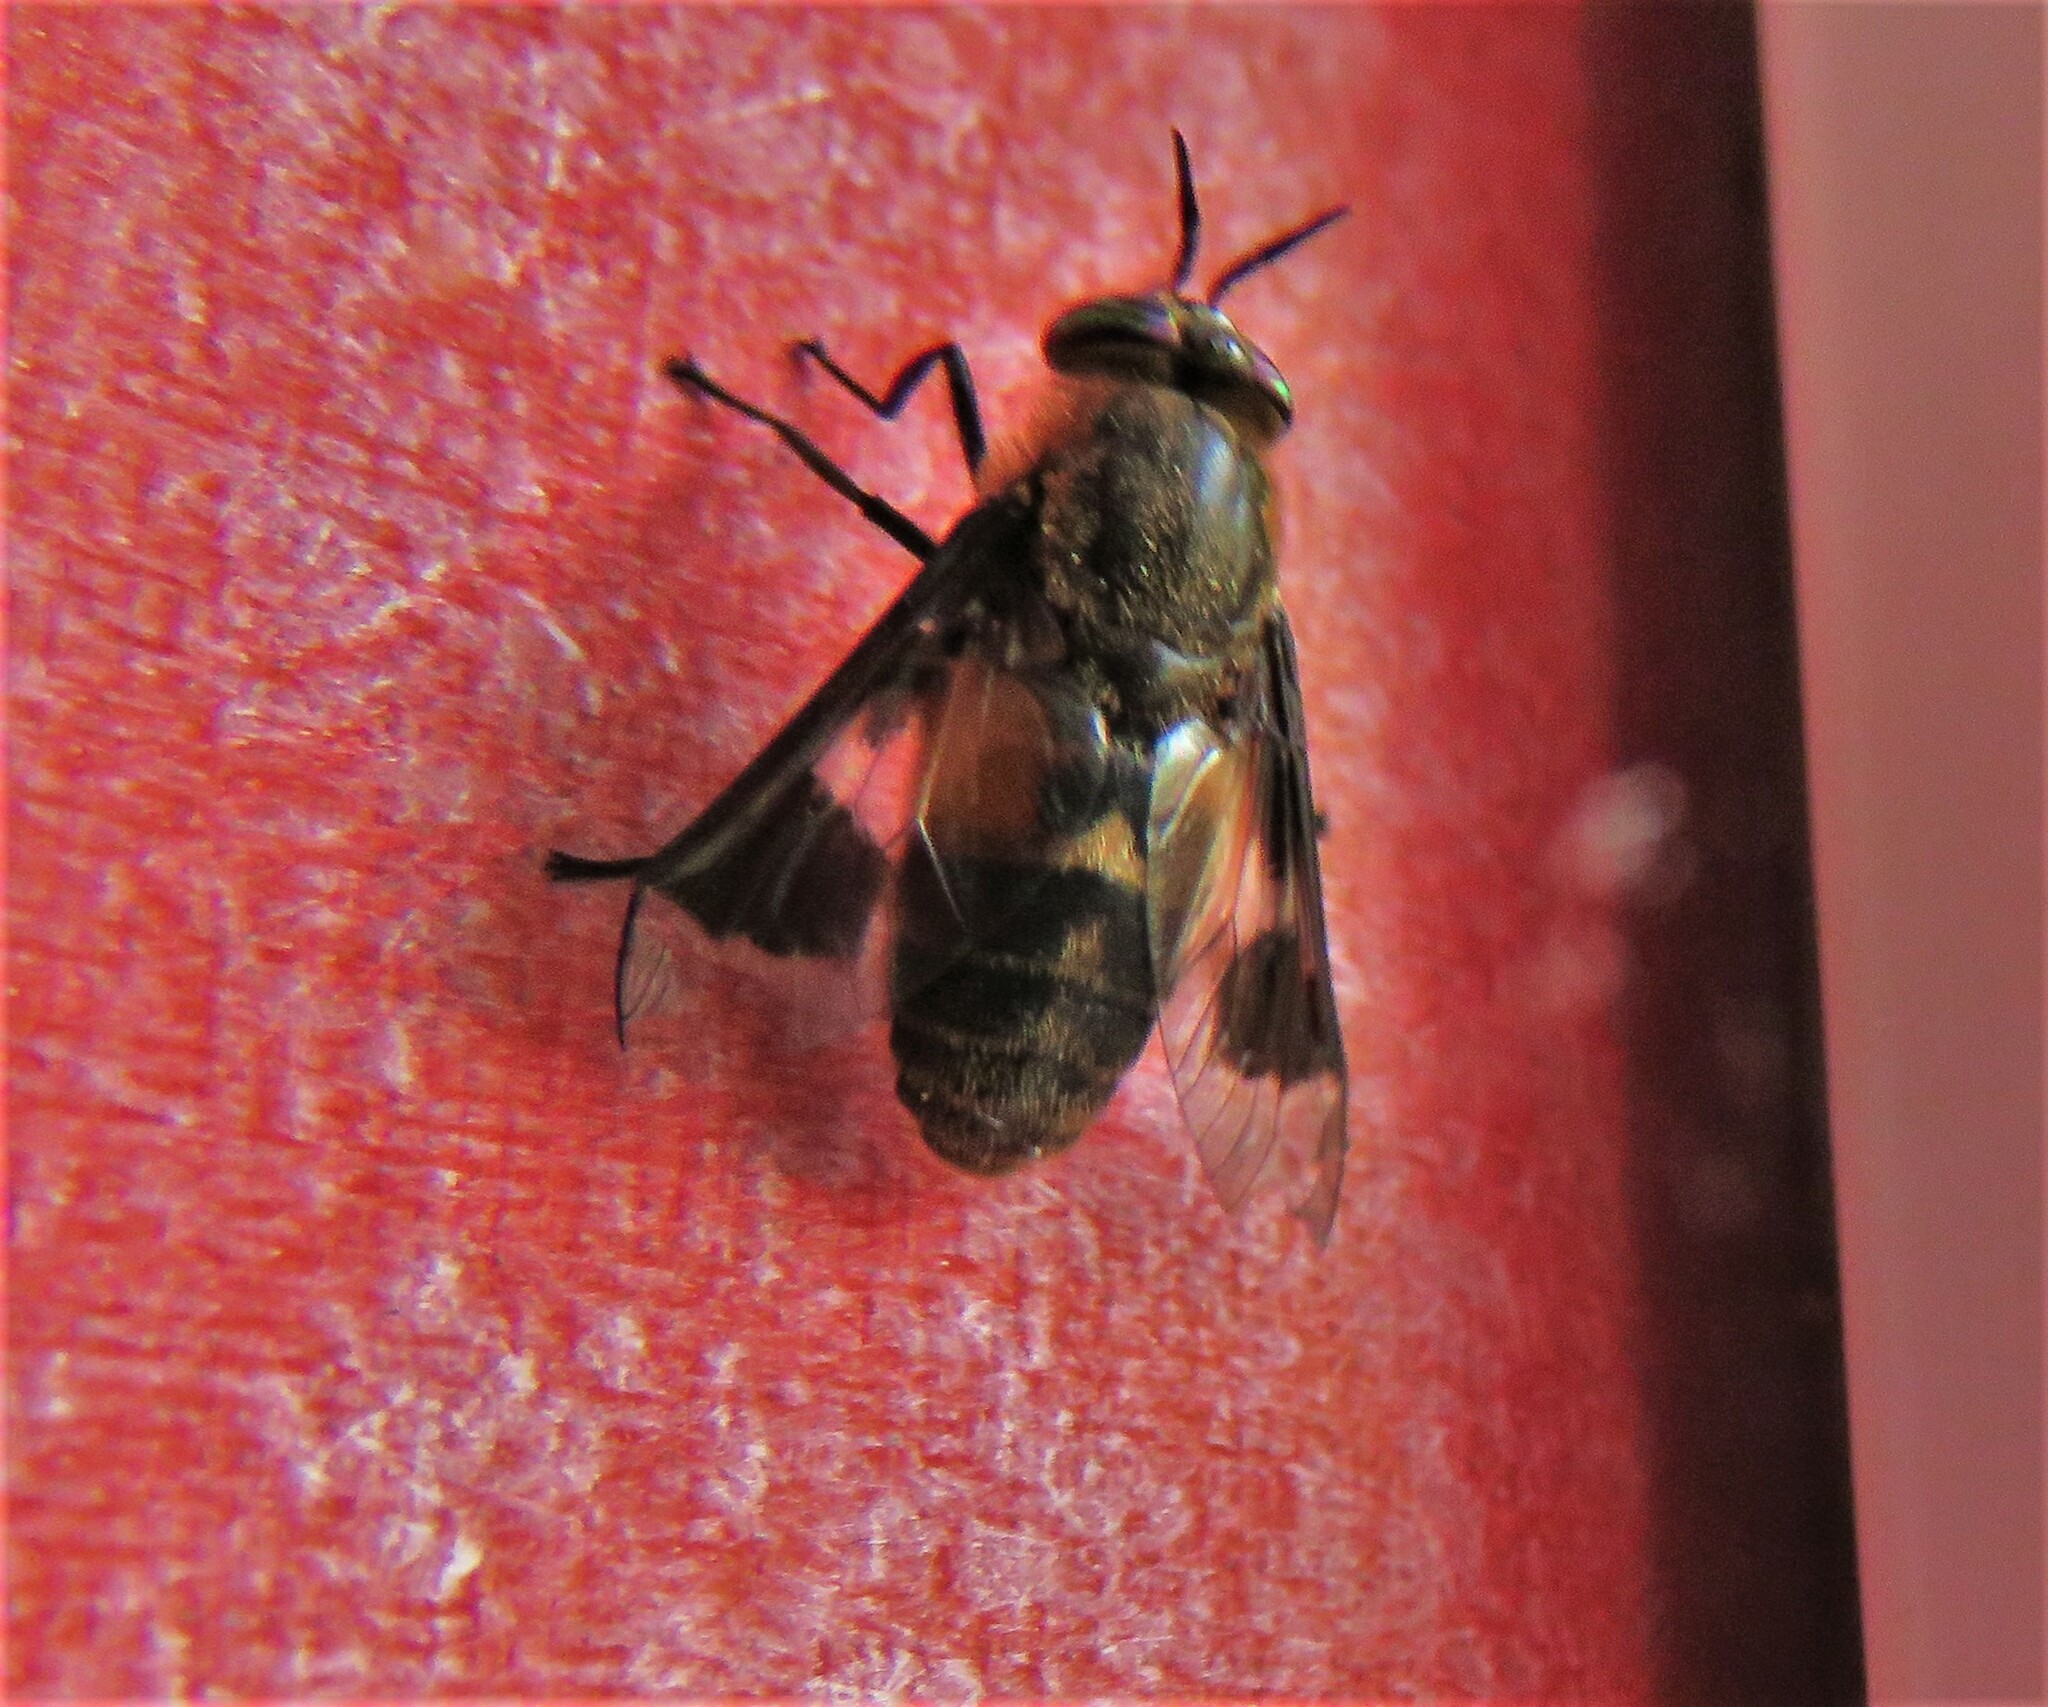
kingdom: Animalia
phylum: Arthropoda
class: Insecta
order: Diptera
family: Tabanidae
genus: Chrysops
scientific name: Chrysops excitans
